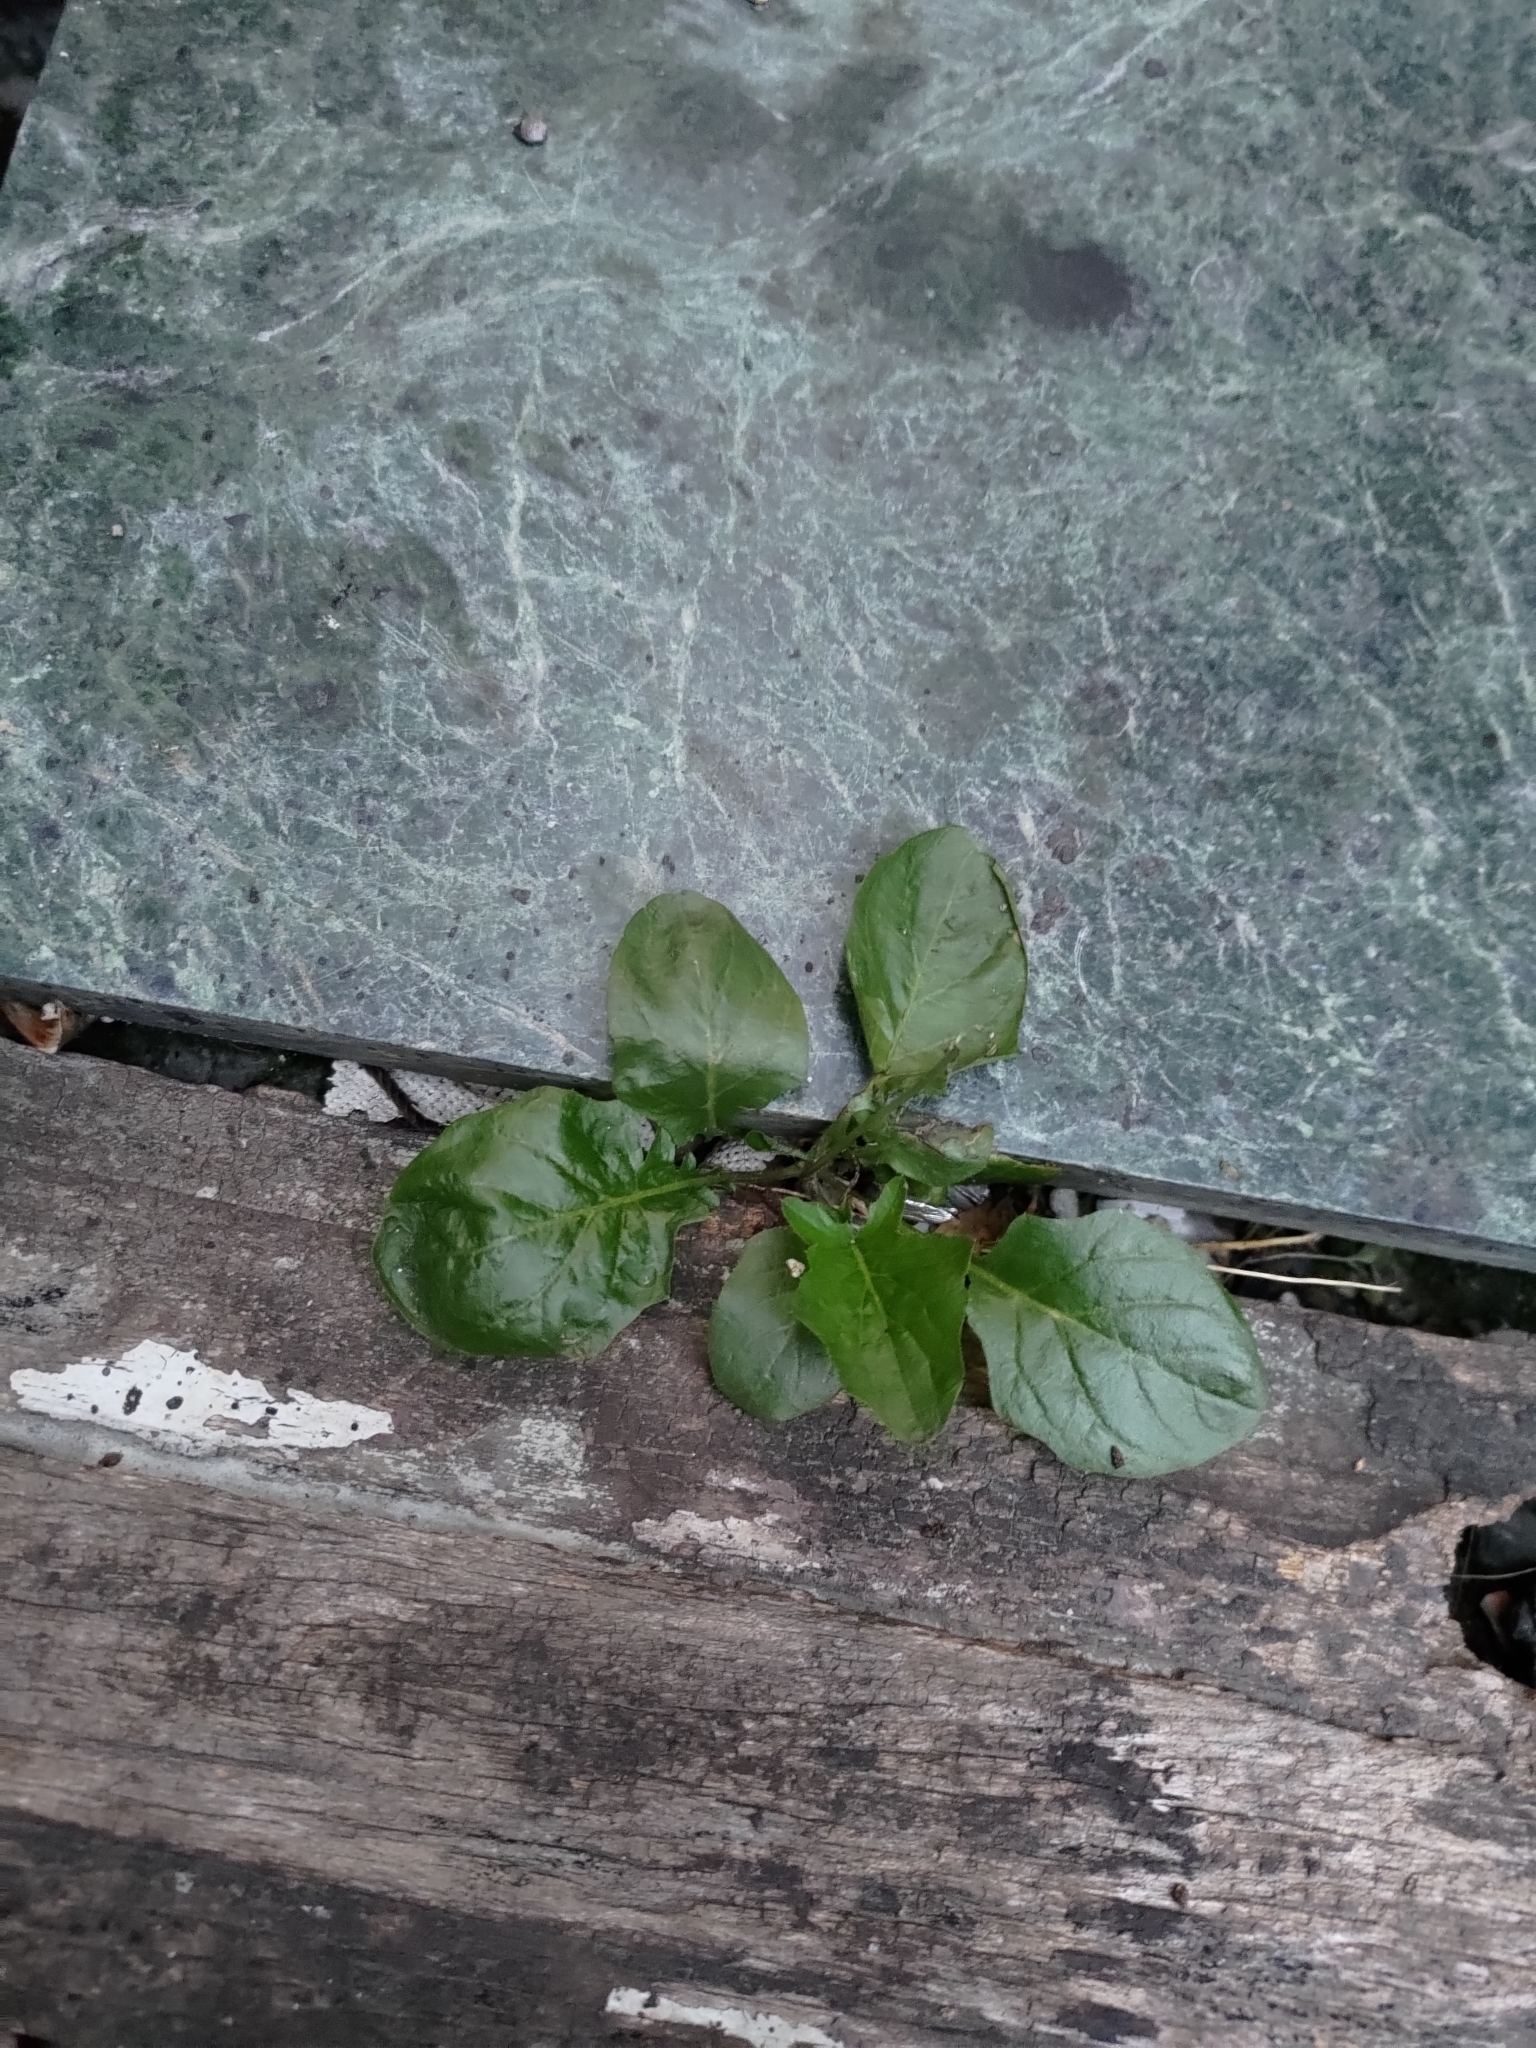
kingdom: Plantae
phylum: Tracheophyta
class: Magnoliopsida
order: Asterales
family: Asteraceae
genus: Youngia
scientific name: Youngia japonica
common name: Oriental false hawksbeard
